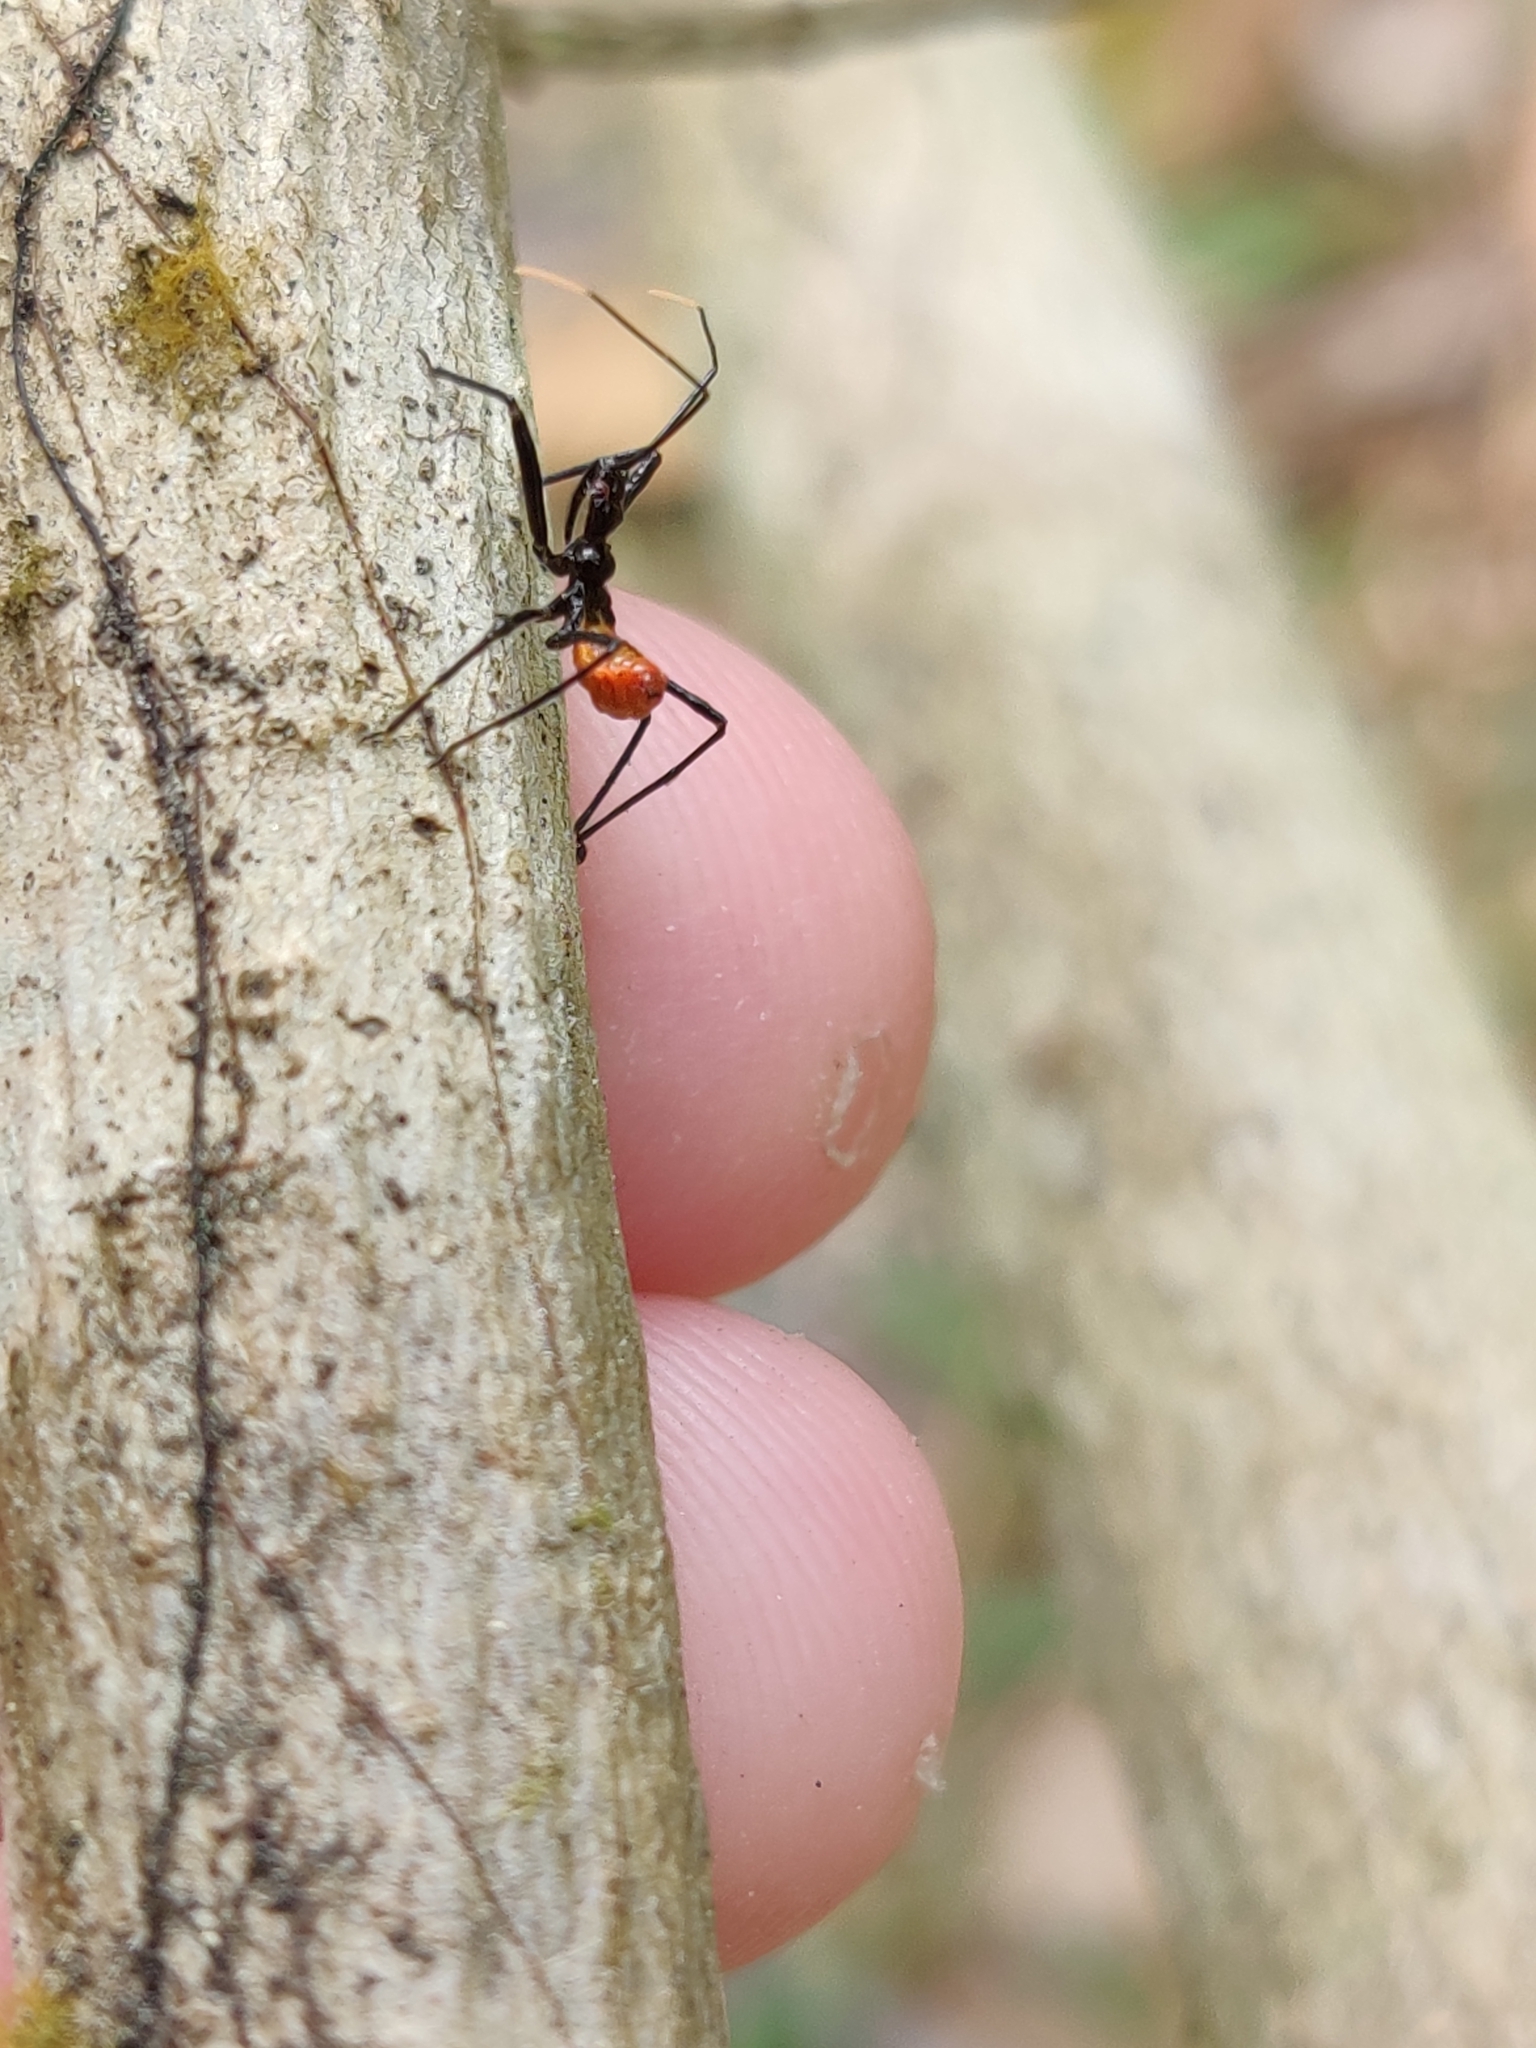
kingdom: Animalia
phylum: Arthropoda
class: Insecta
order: Hemiptera
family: Reduviidae
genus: Arilus
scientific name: Arilus cristatus
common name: North american wheel bug
